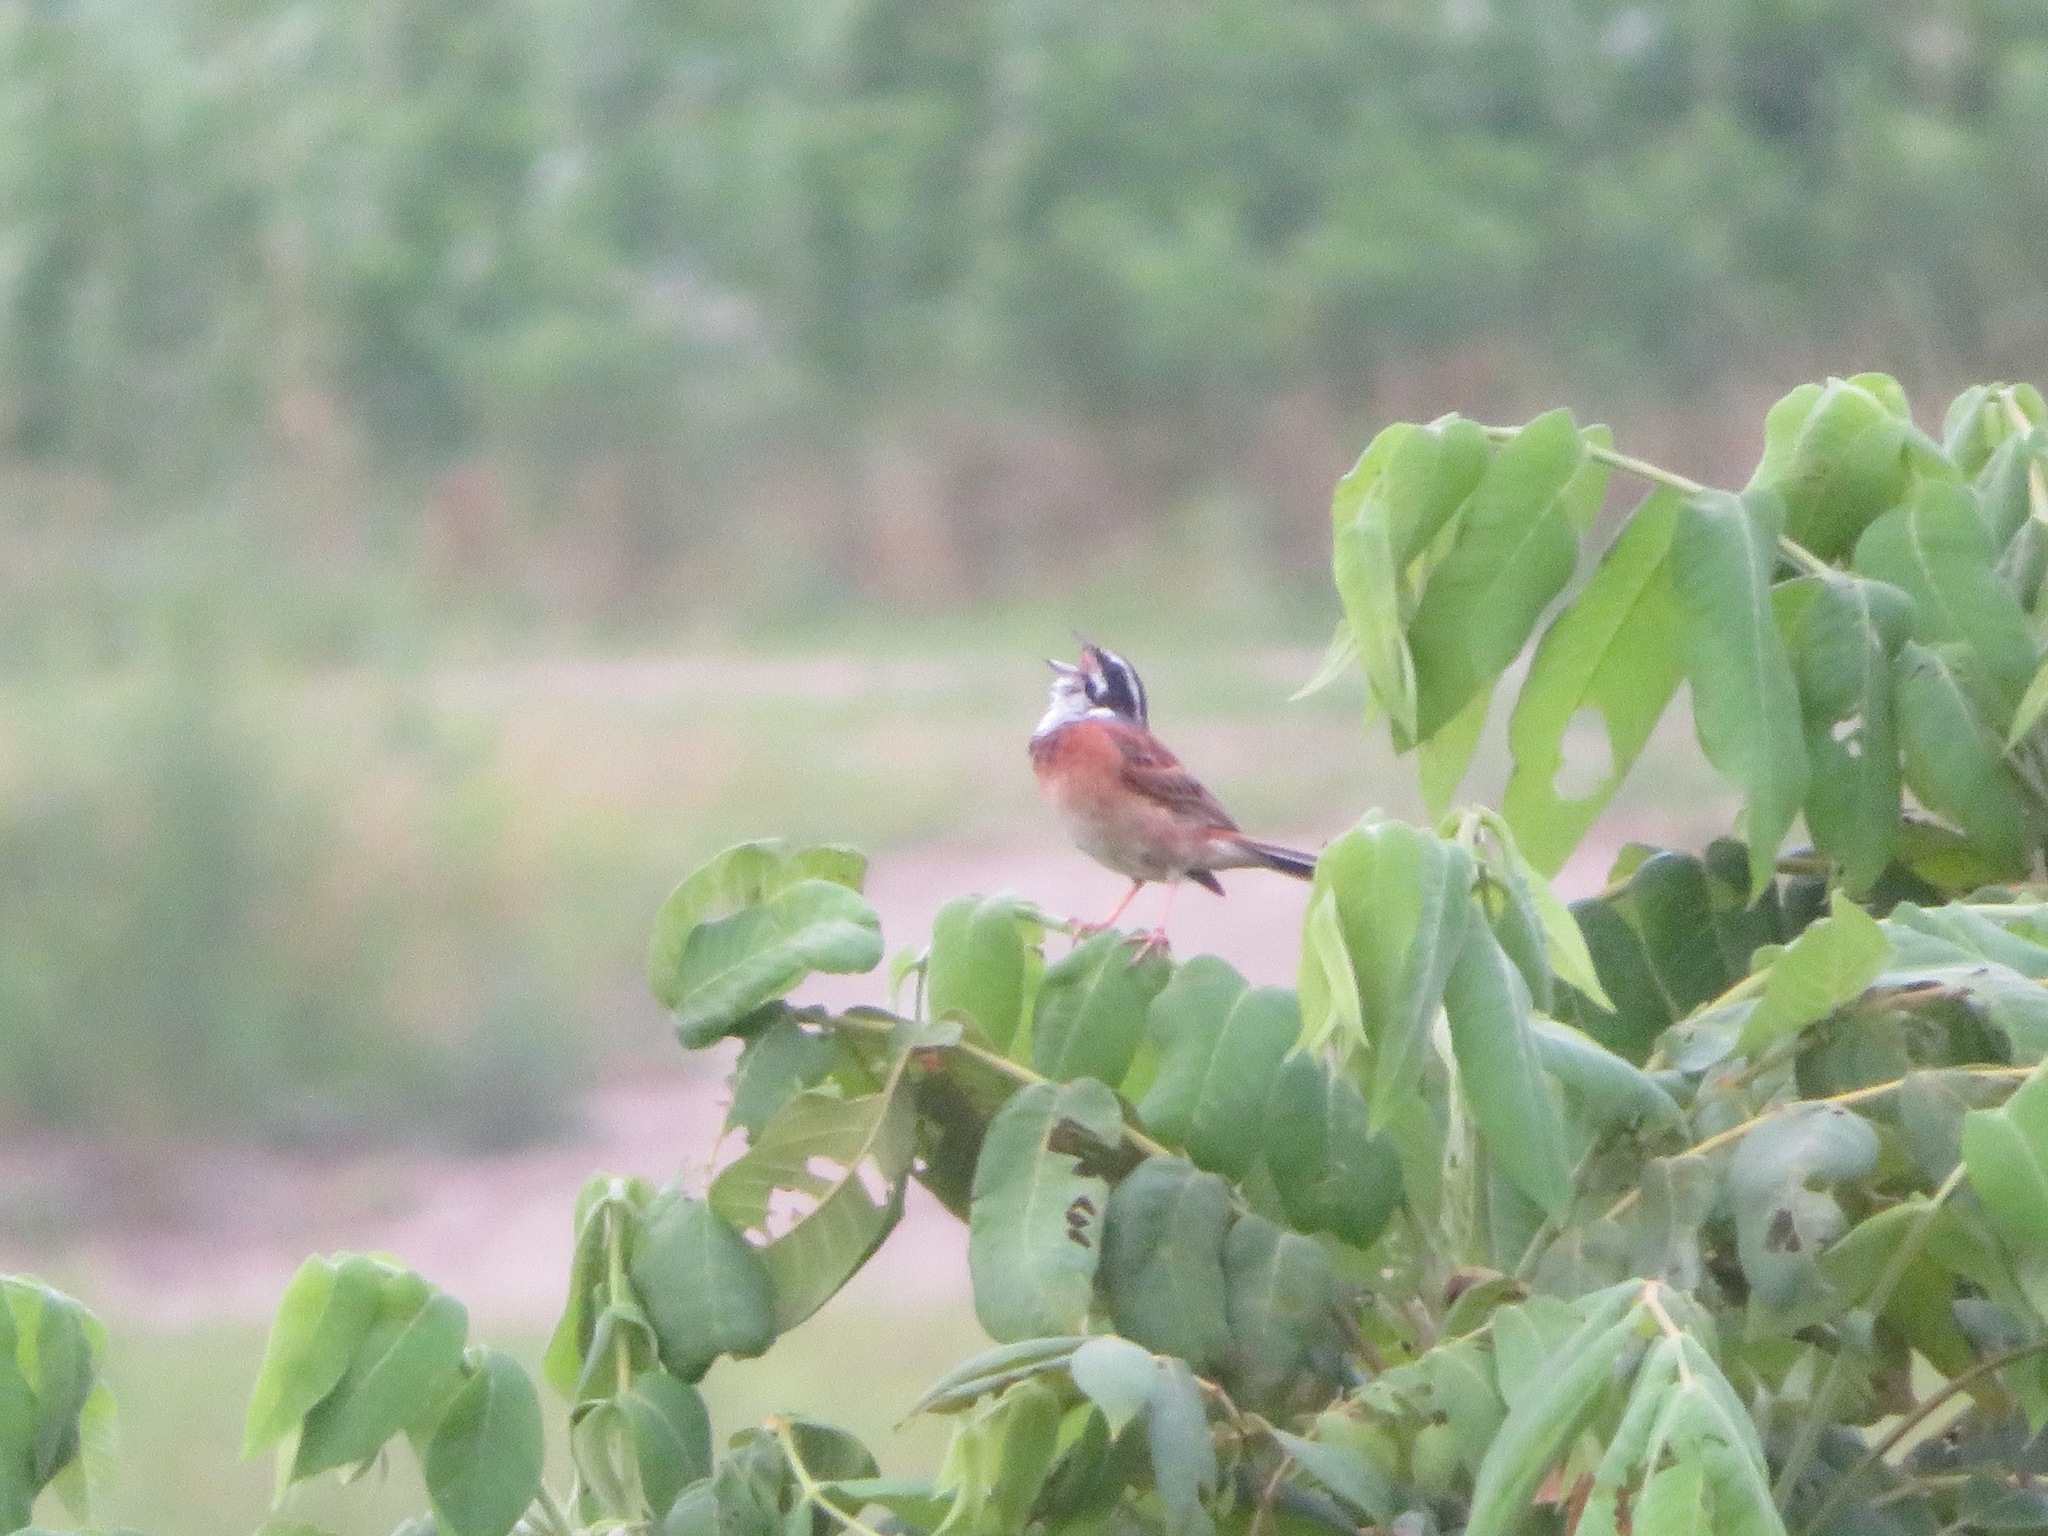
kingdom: Animalia
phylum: Chordata
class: Aves
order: Passeriformes
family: Emberizidae
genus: Emberiza
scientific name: Emberiza cioides
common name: Meadow bunting
